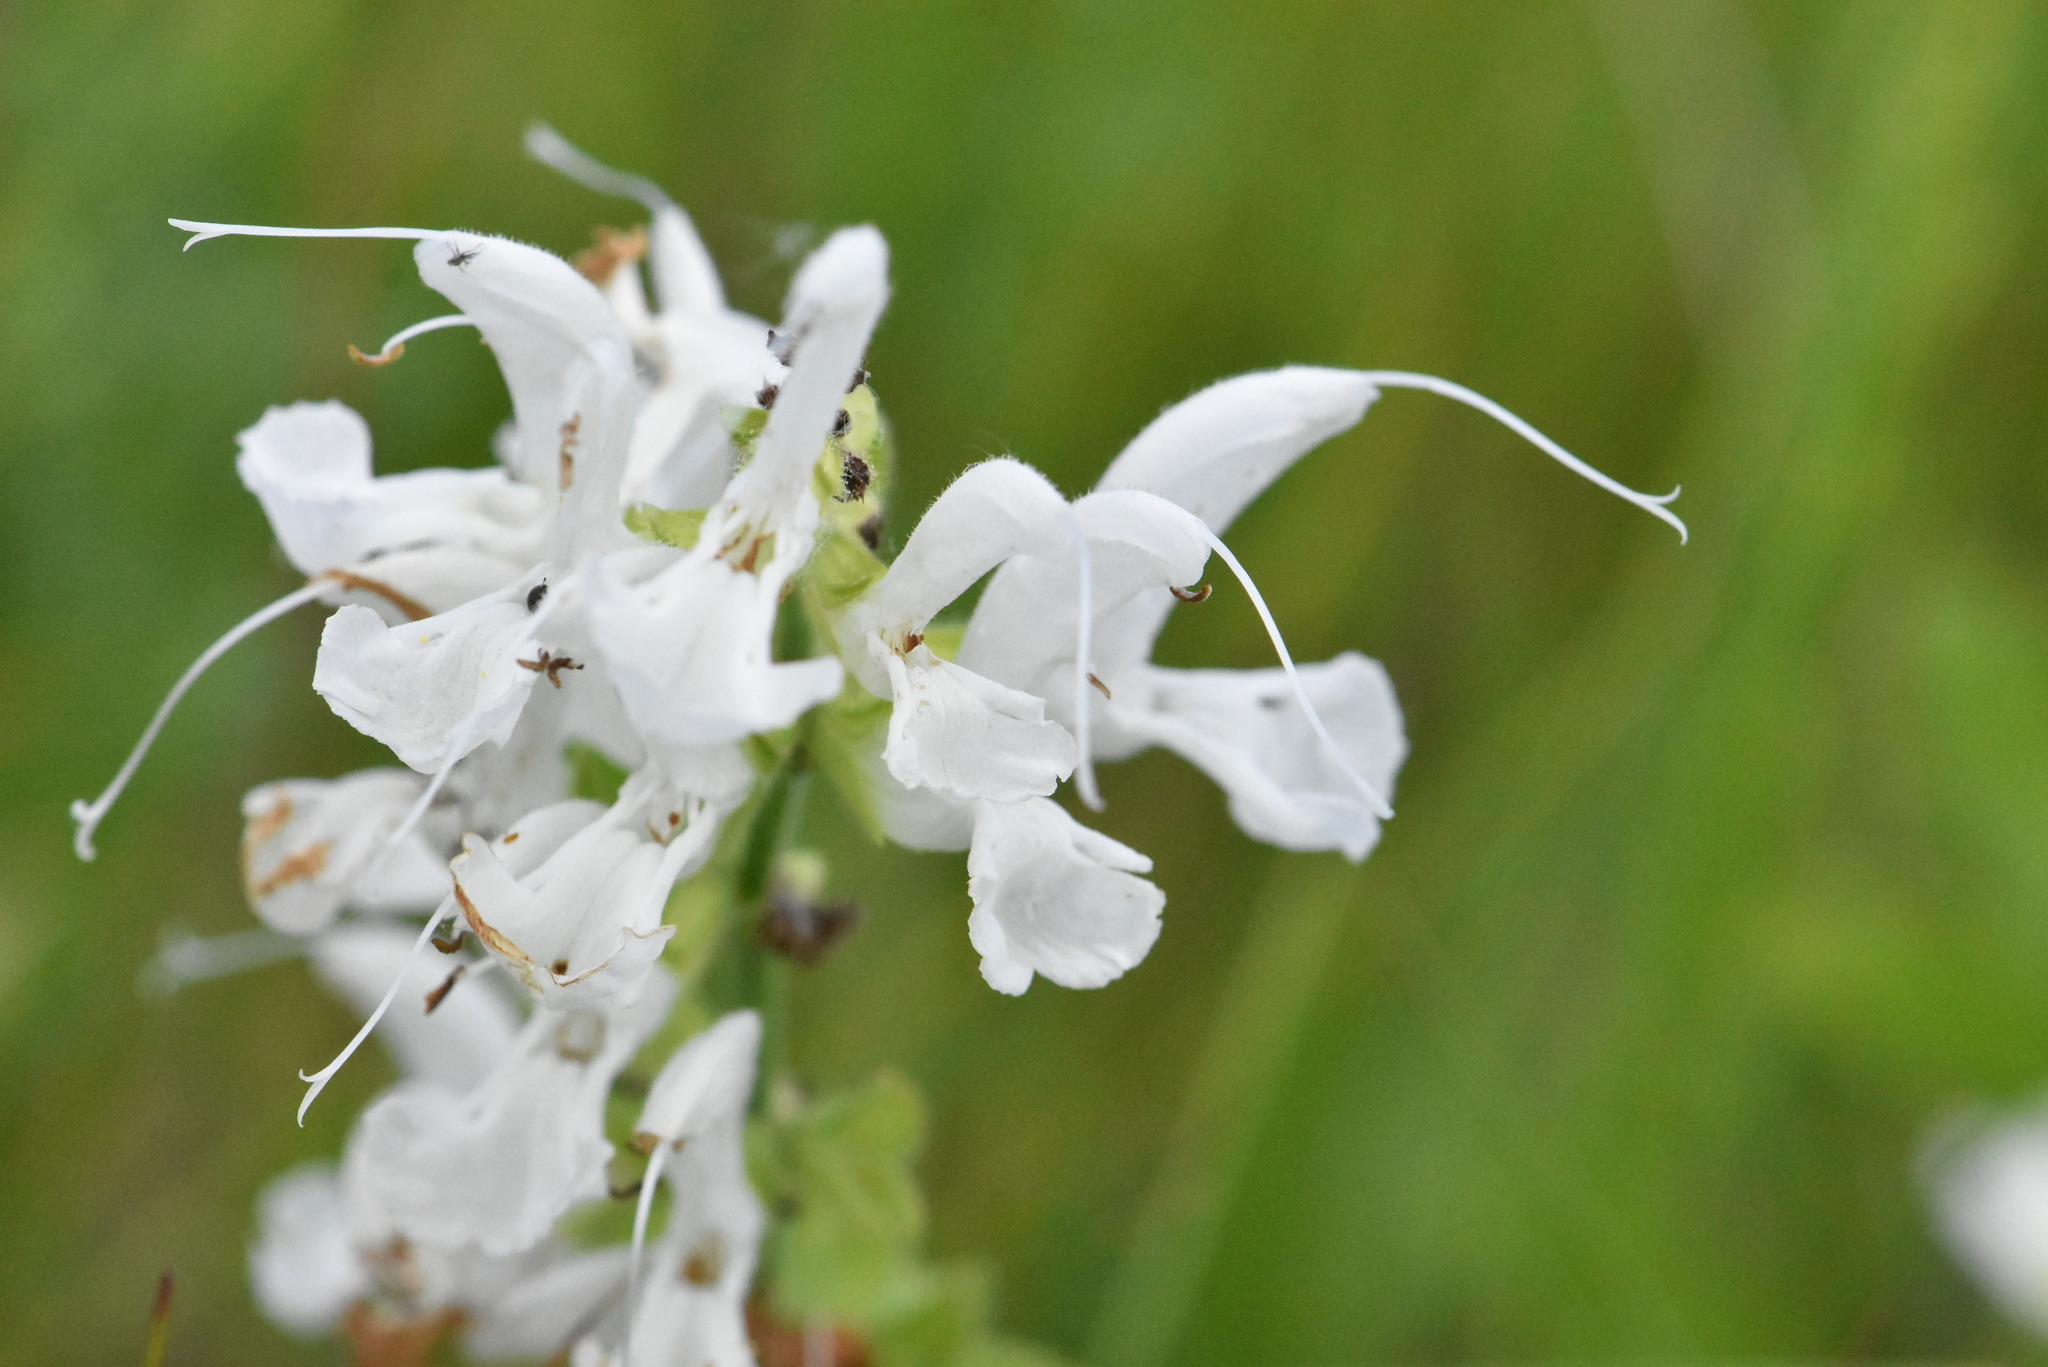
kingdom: Plantae
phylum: Tracheophyta
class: Magnoliopsida
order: Lamiales
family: Lamiaceae
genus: Salvia
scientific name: Salvia pratensis
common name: Meadow sage
